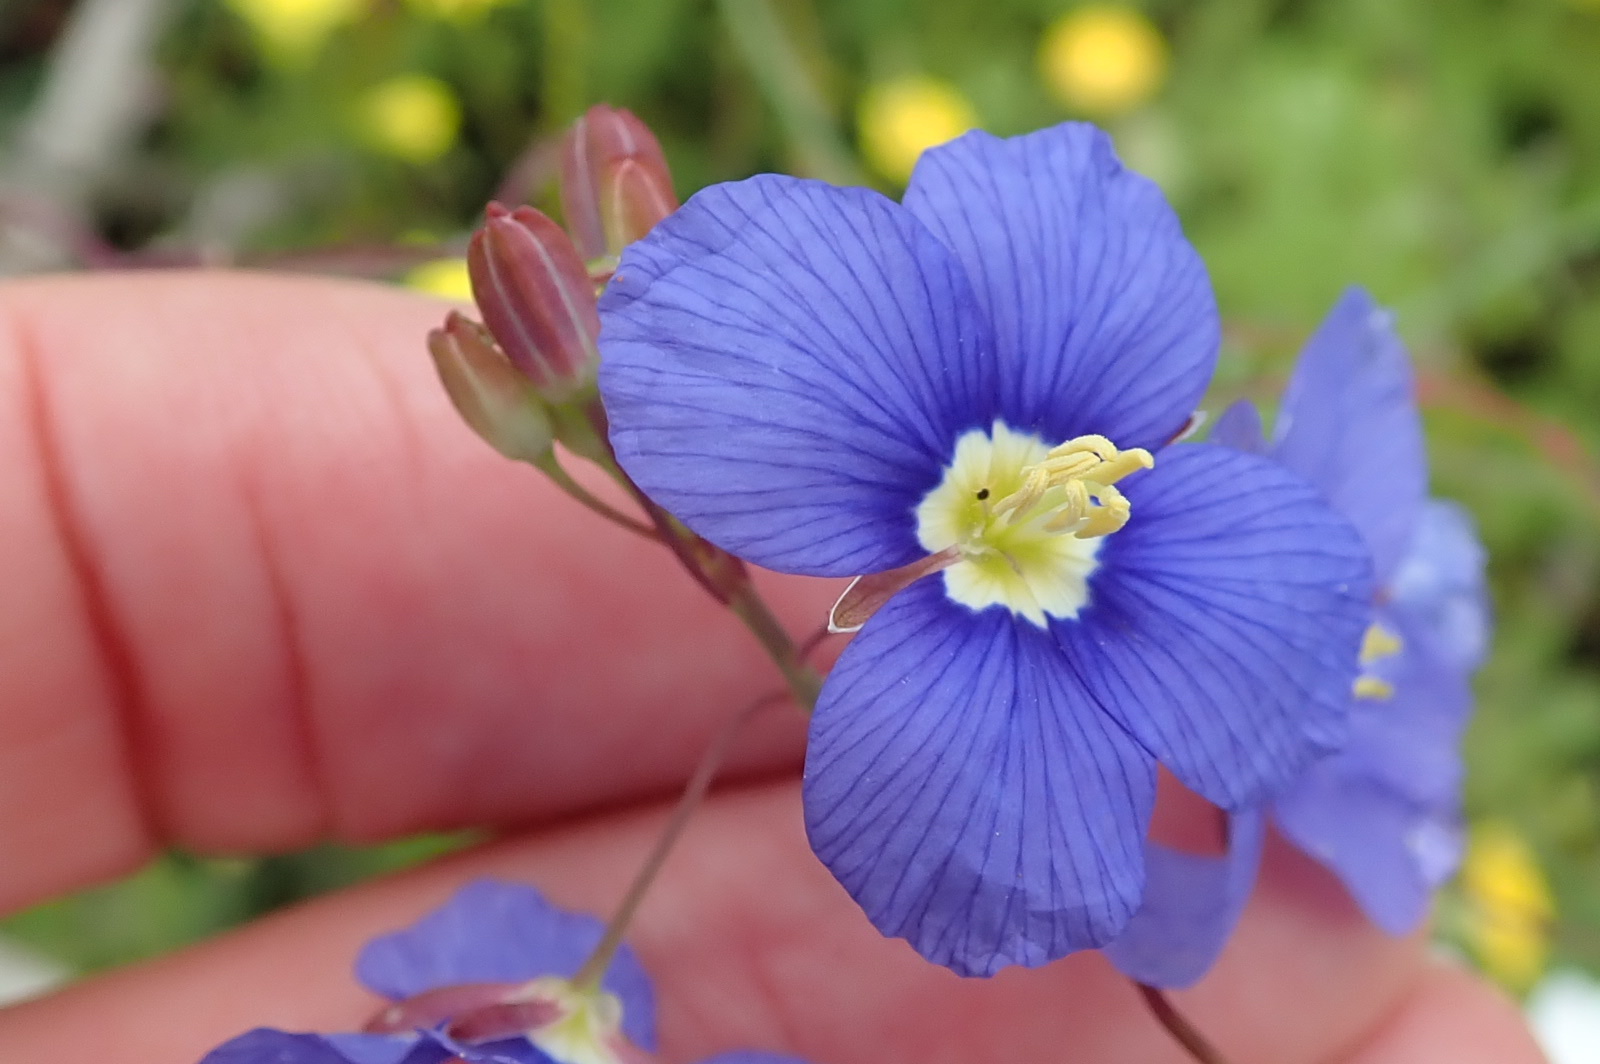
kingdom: Plantae
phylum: Tracheophyta
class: Magnoliopsida
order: Brassicales
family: Brassicaceae
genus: Heliophila
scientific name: Heliophila coronopifolia
